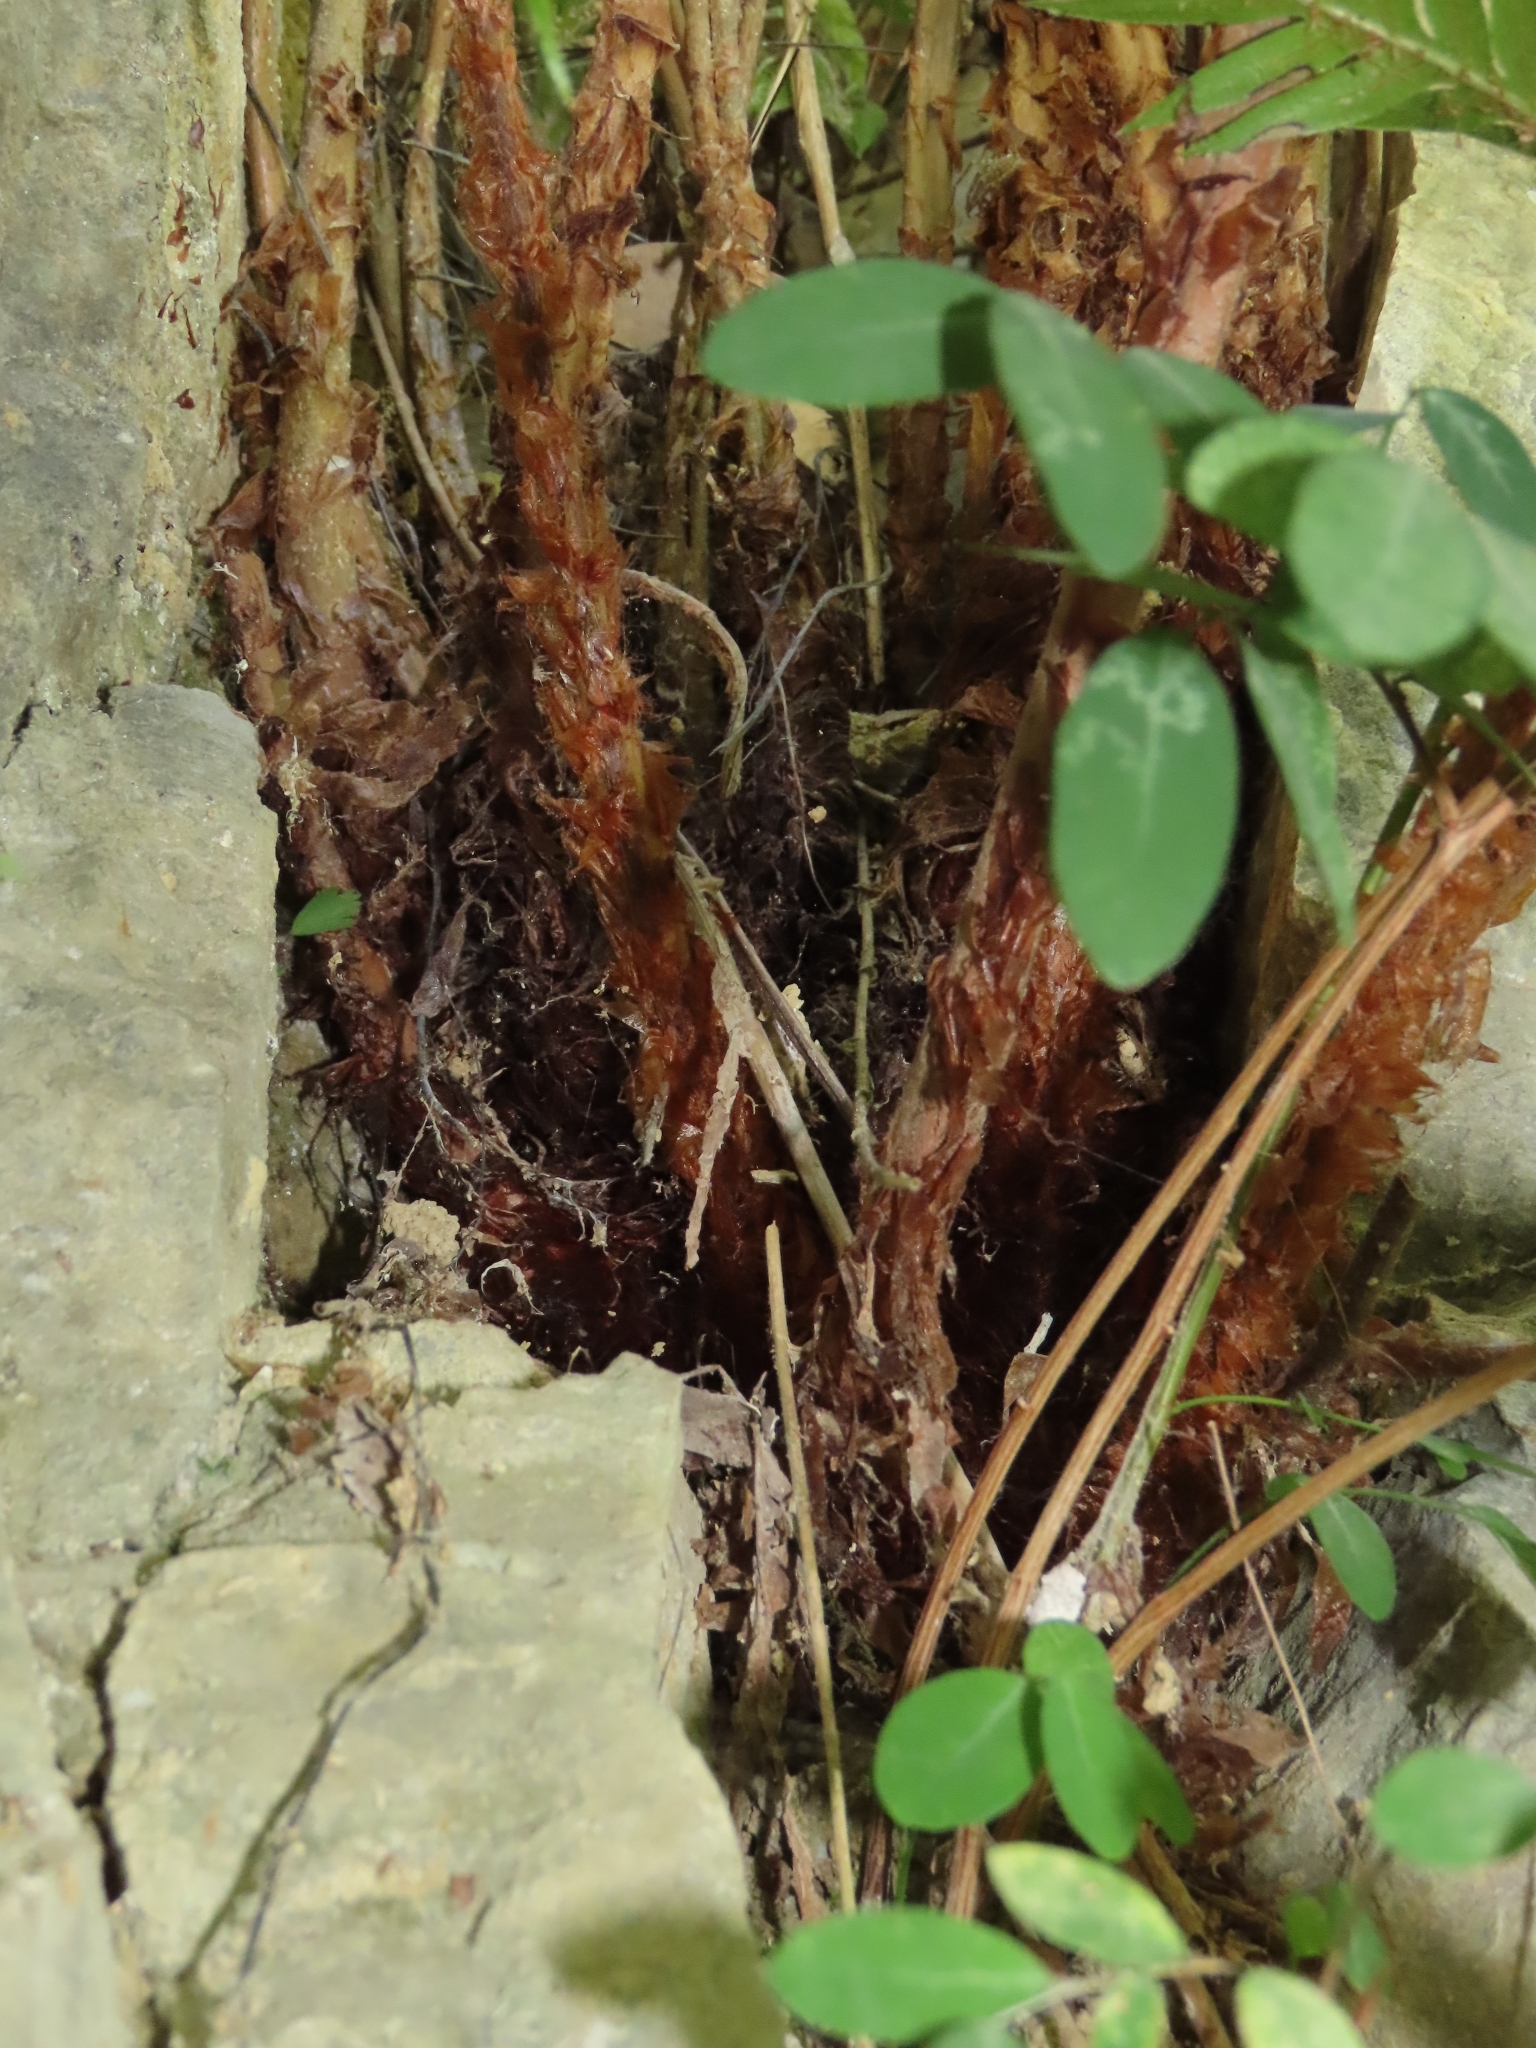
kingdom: Plantae
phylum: Tracheophyta
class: Polypodiopsida
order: Polypodiales
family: Blechnaceae
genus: Woodwardia
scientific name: Woodwardia prolifera
